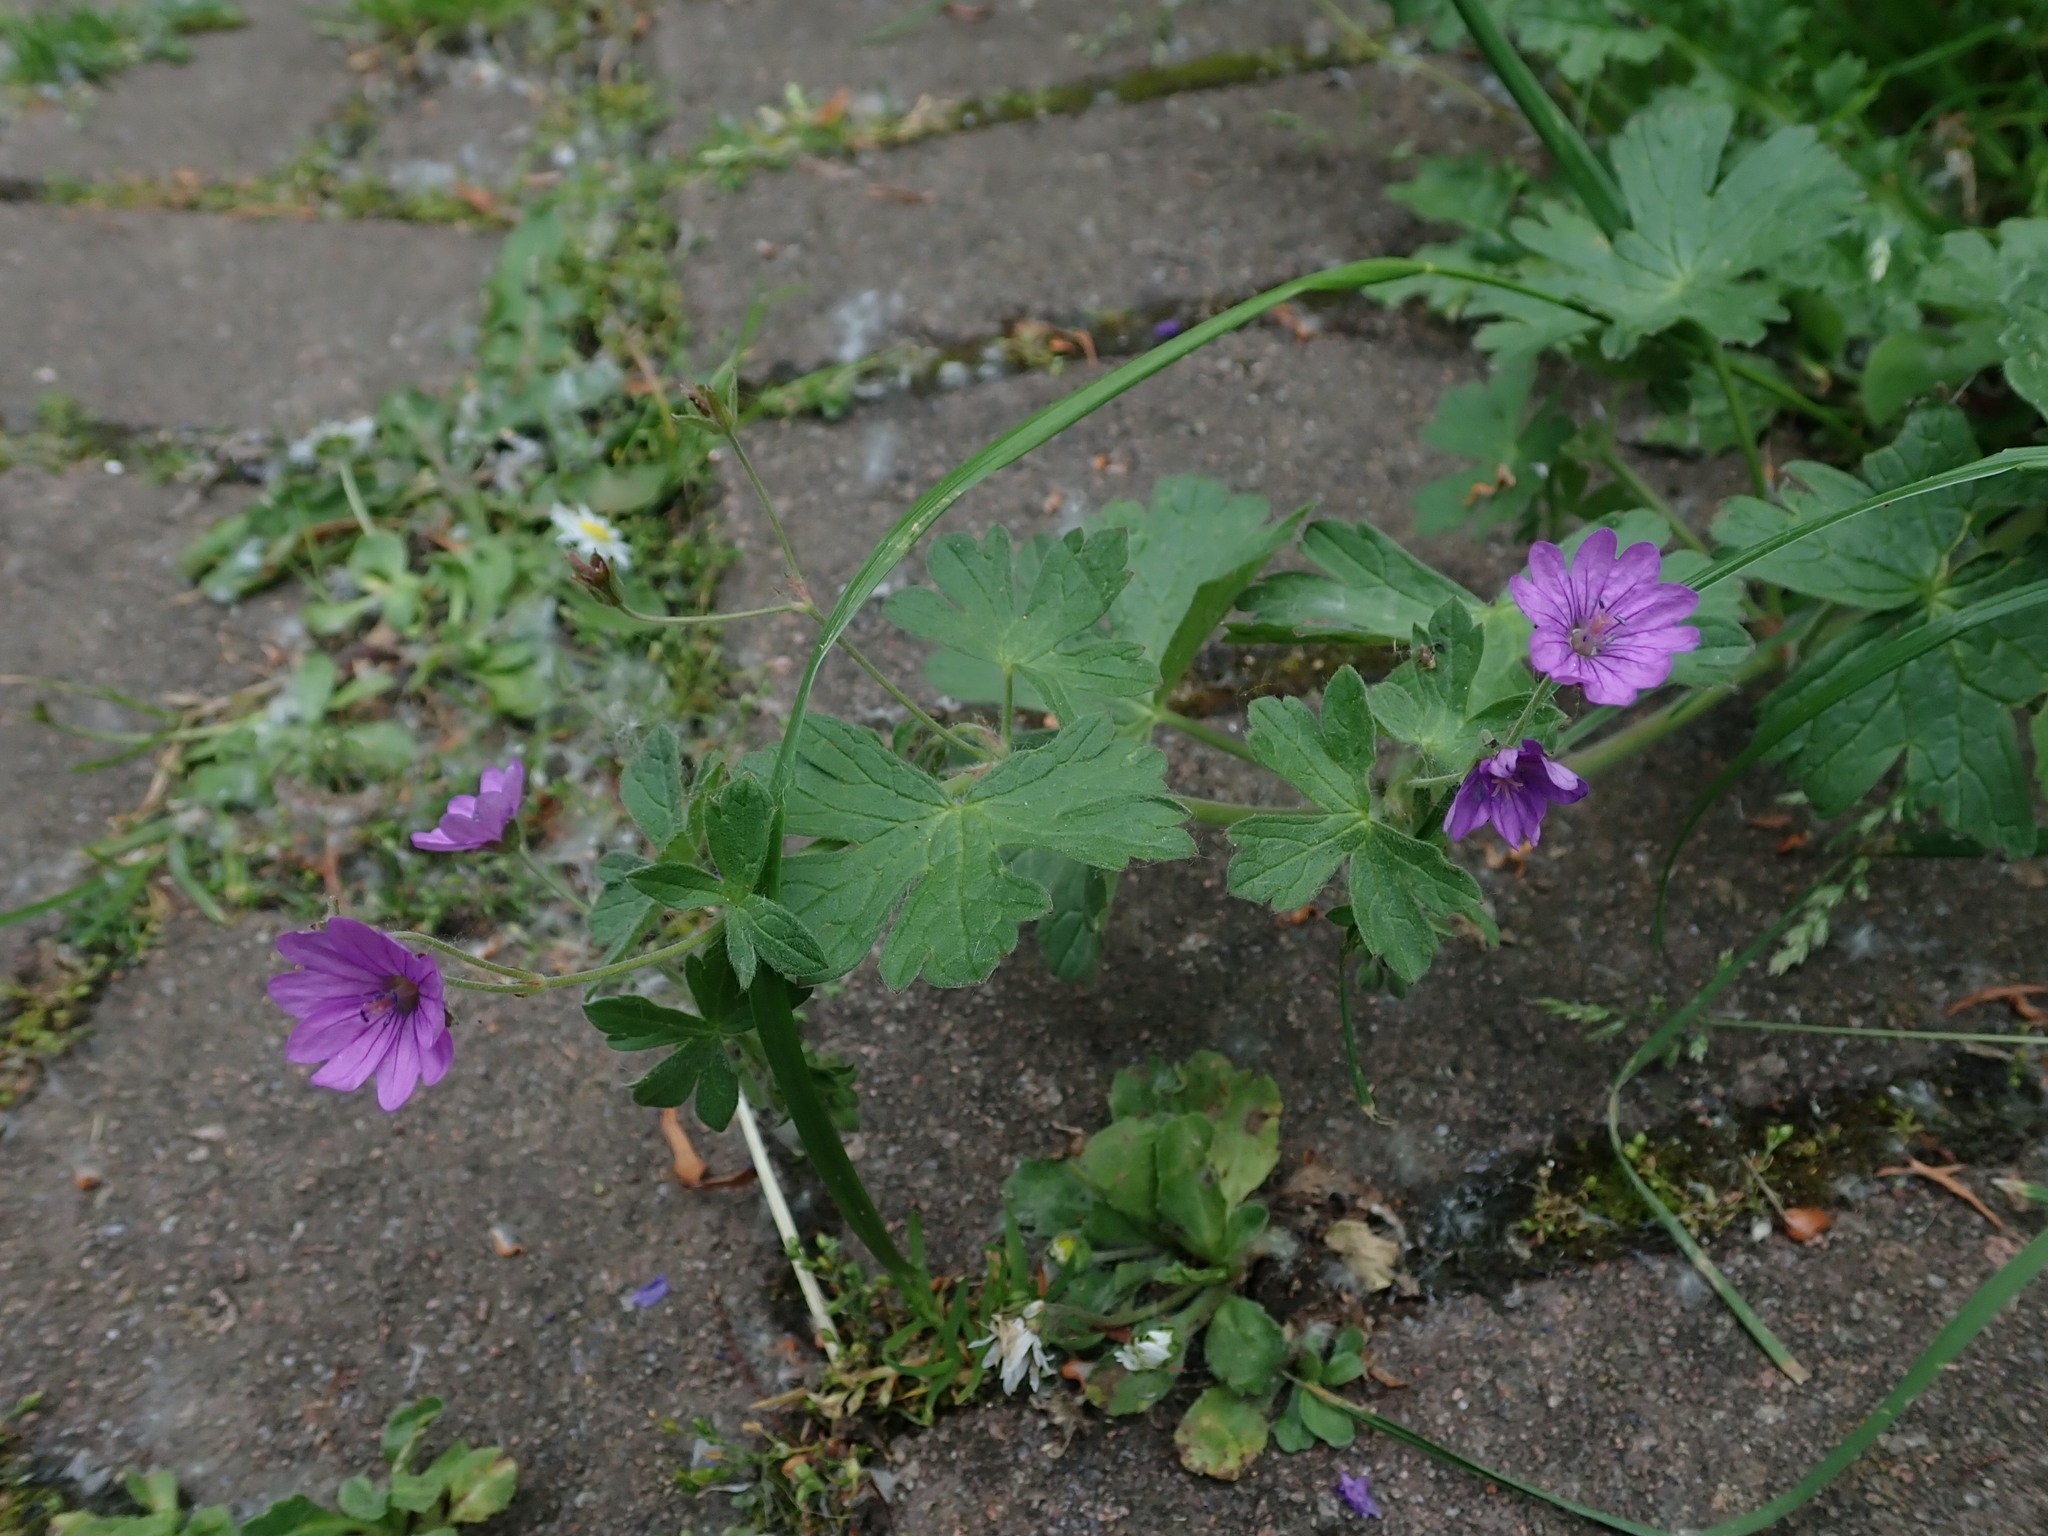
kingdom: Plantae
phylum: Tracheophyta
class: Magnoliopsida
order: Geraniales
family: Geraniaceae
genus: Geranium
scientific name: Geranium pyrenaicum
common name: Hedgerow crane's-bill
